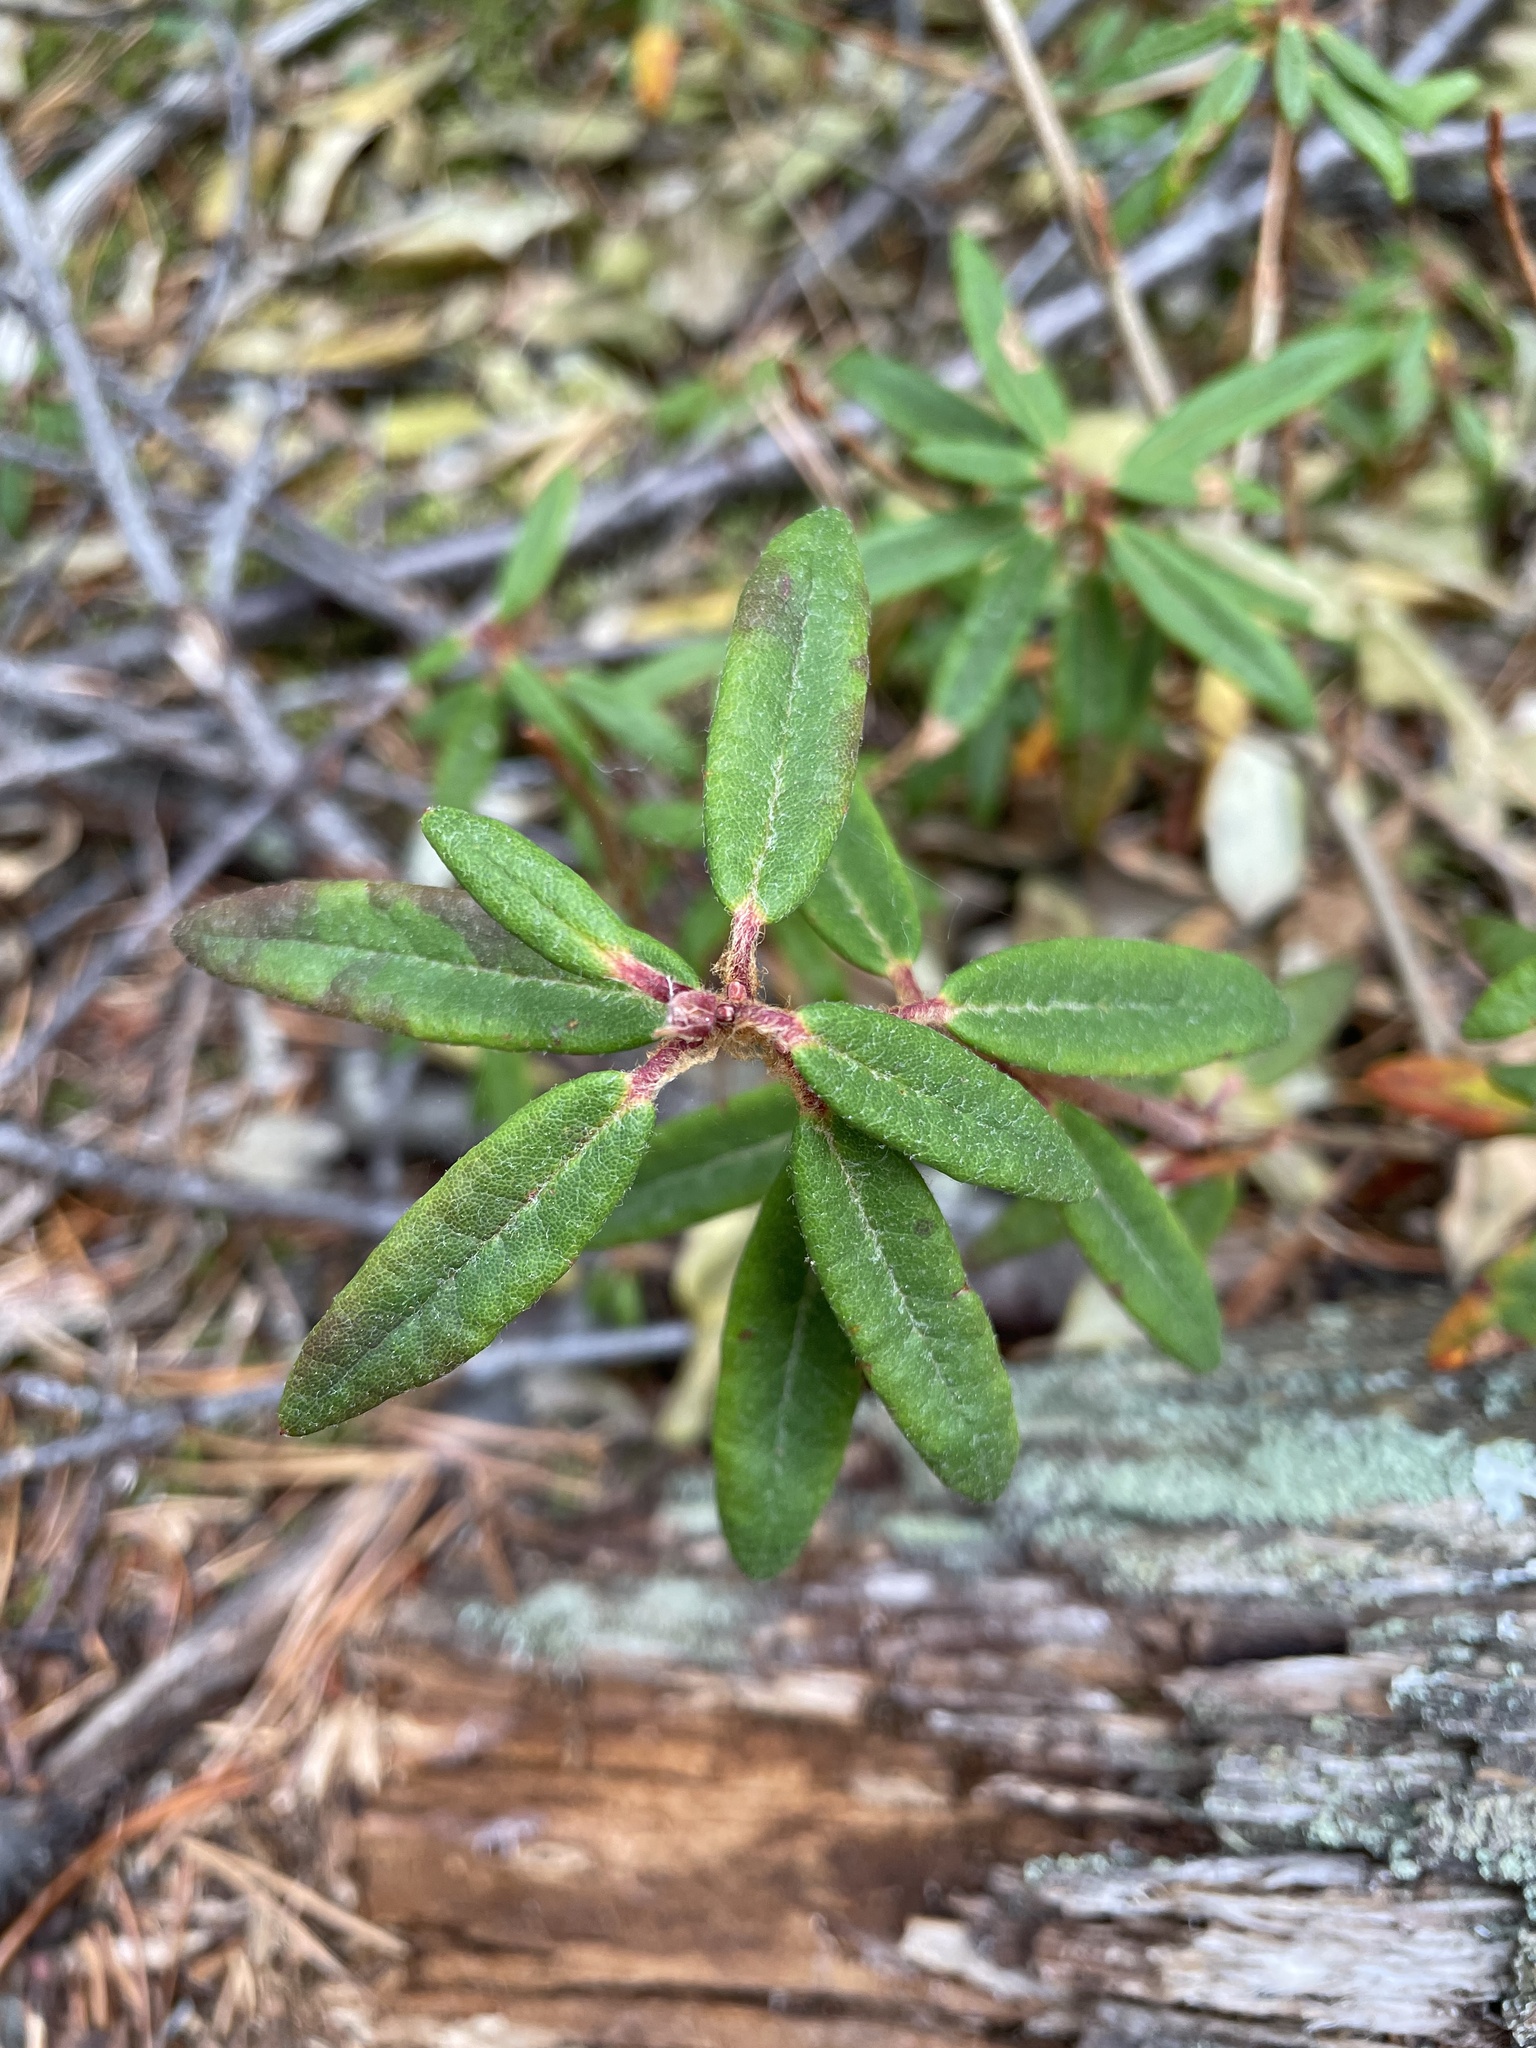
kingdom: Plantae
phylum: Tracheophyta
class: Magnoliopsida
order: Ericales
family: Ericaceae
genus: Rhododendron
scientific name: Rhododendron groenlandicum
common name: Bog labrador tea
